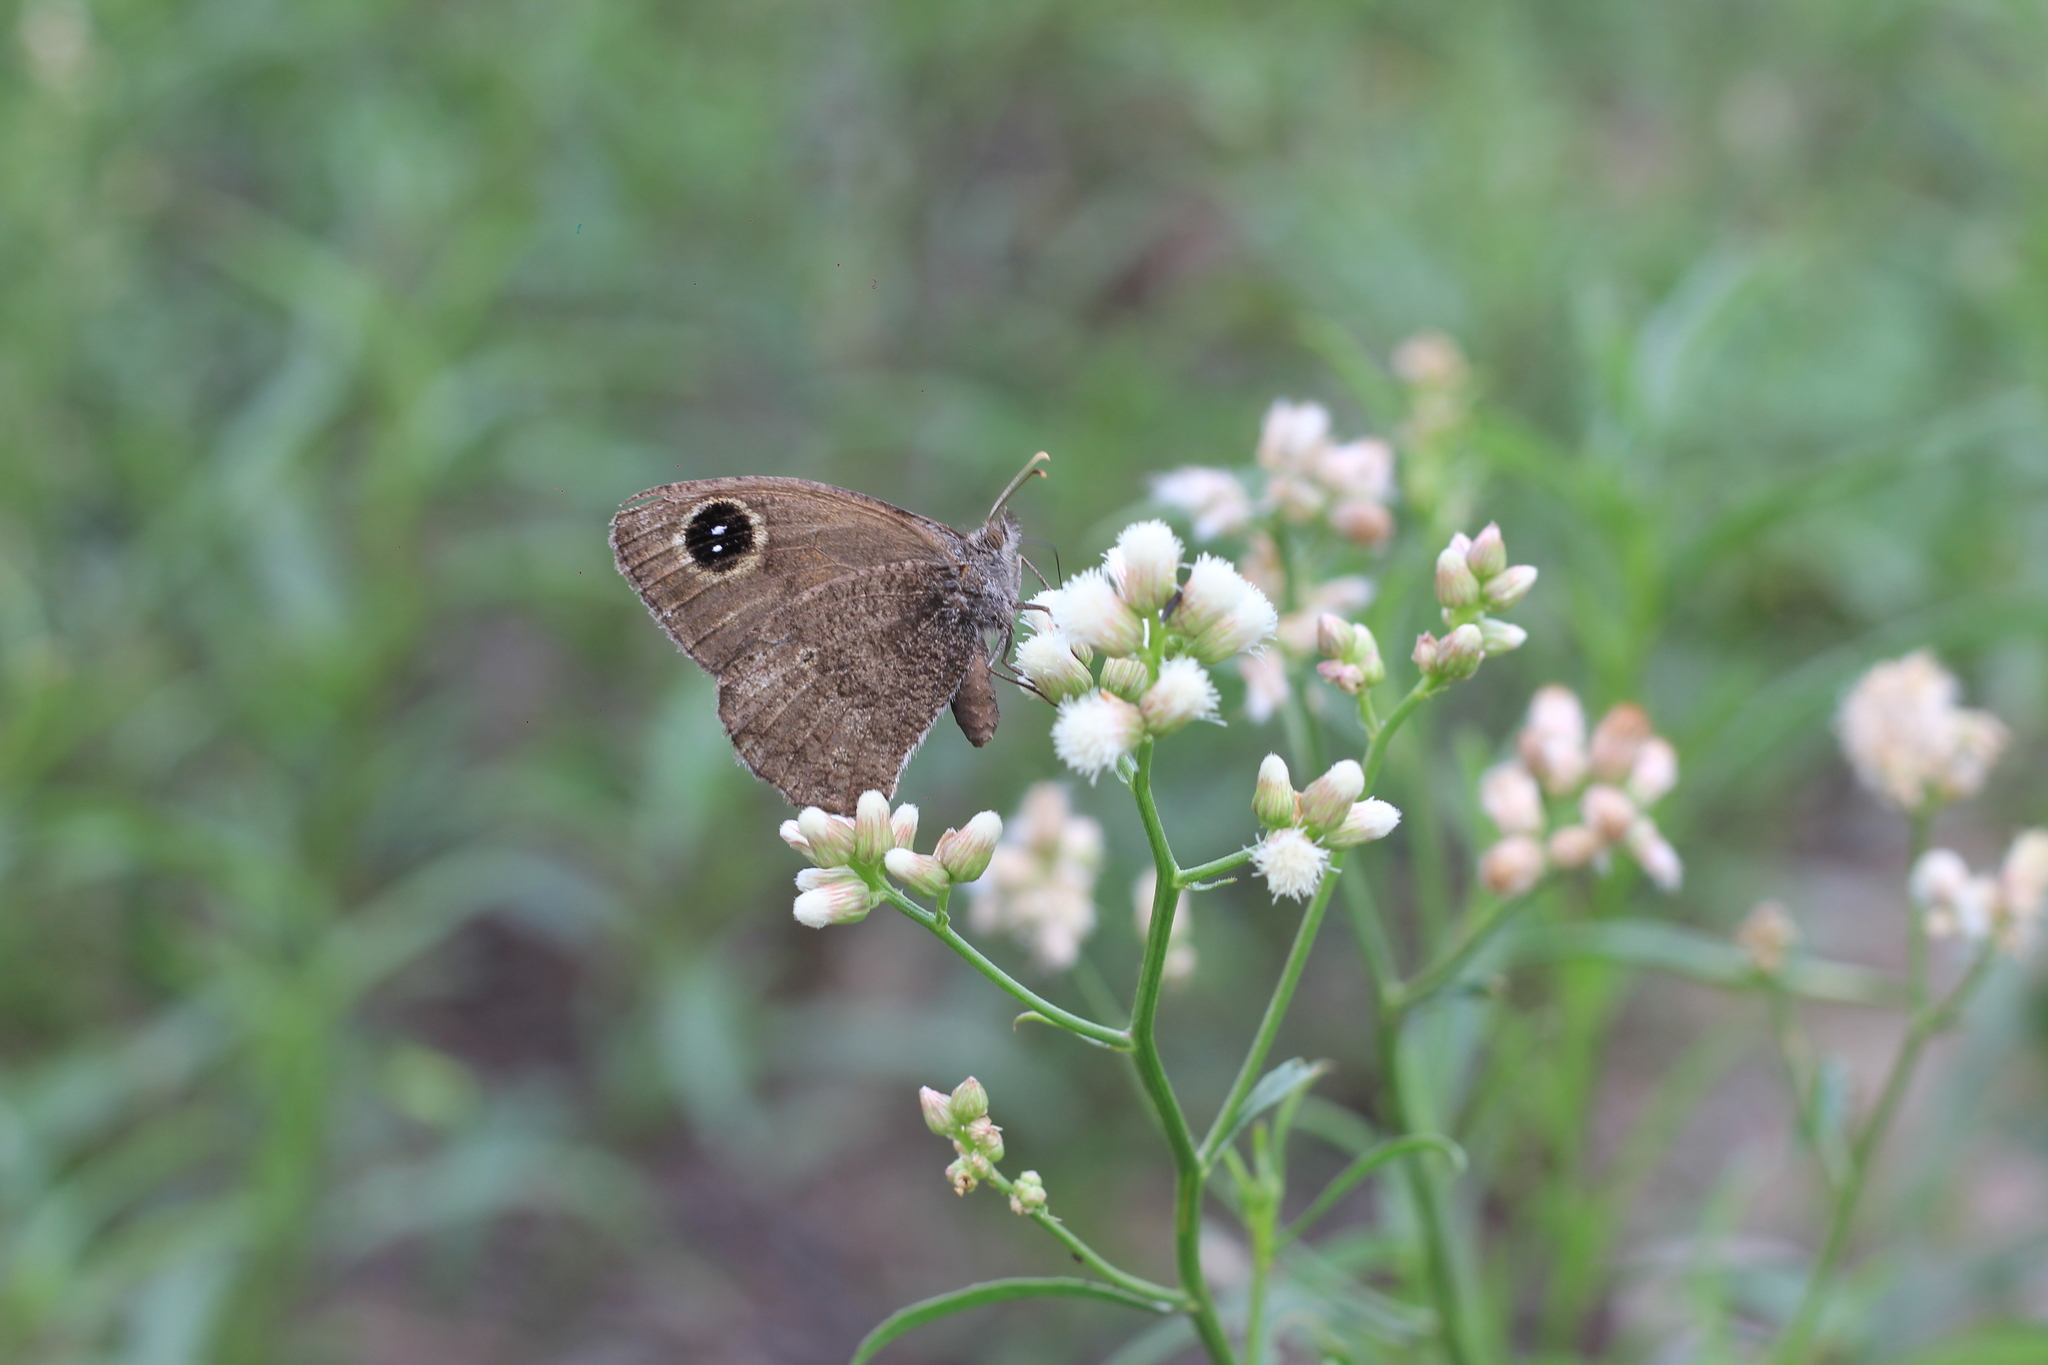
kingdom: Animalia
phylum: Arthropoda
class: Insecta
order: Lepidoptera
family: Nymphalidae
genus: Pampasatyrus
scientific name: Pampasatyrus yacantoensis
